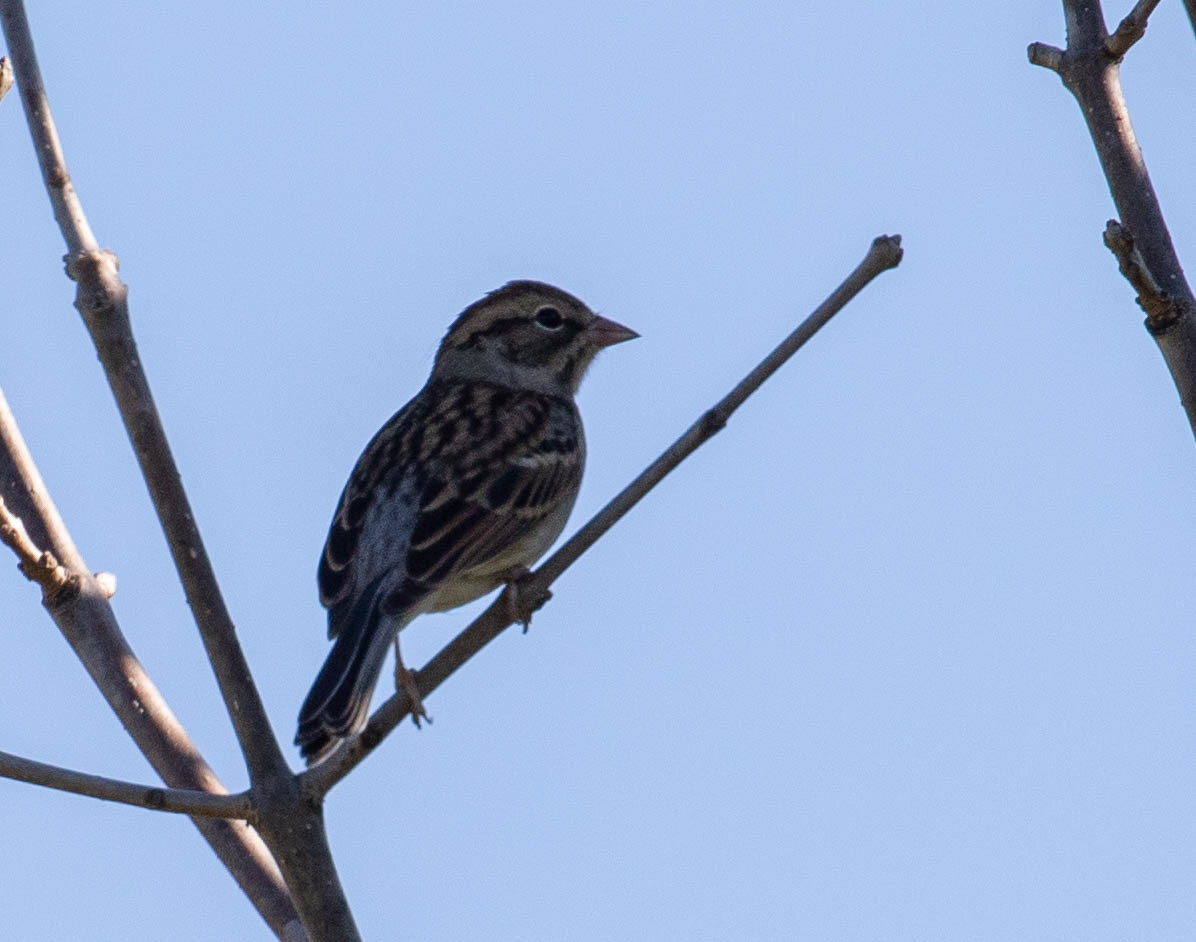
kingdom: Animalia
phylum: Chordata
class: Aves
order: Passeriformes
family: Passerellidae
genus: Spizella
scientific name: Spizella passerina
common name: Chipping sparrow
